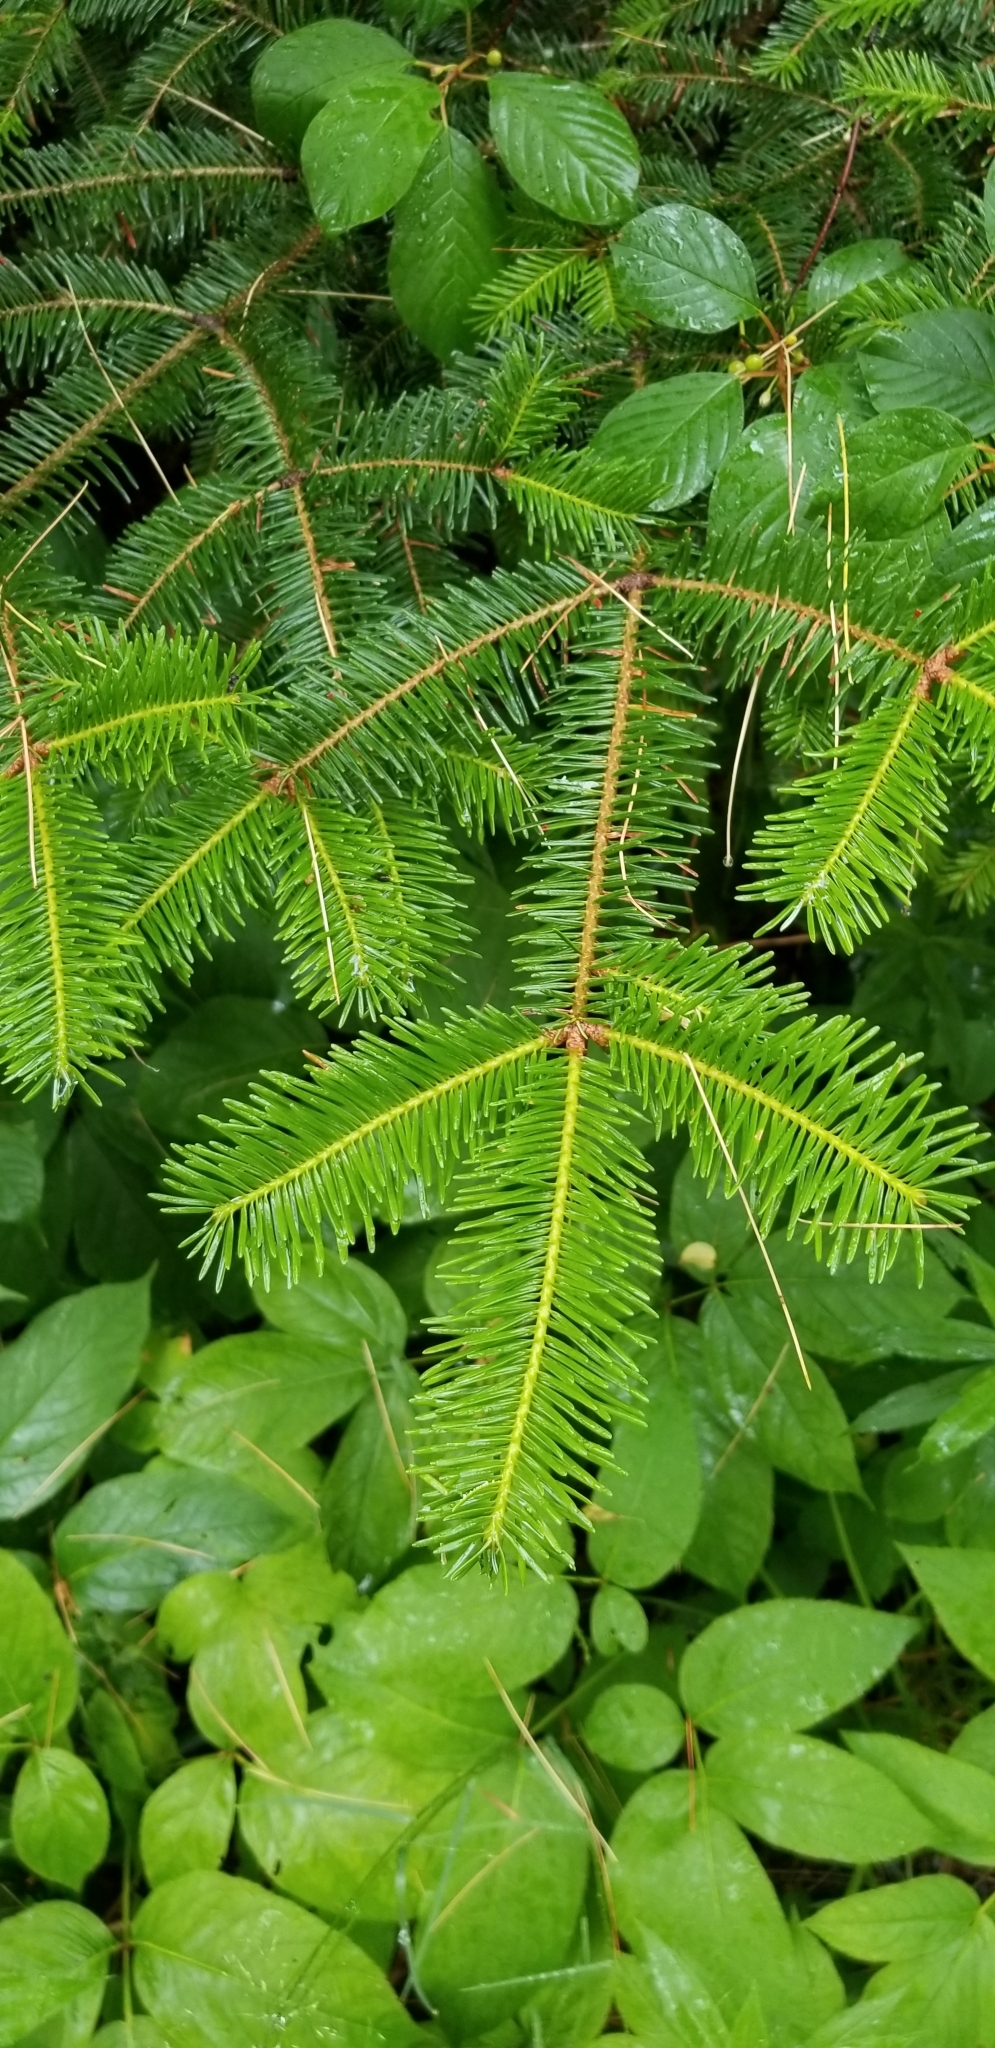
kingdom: Plantae
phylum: Tracheophyta
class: Pinopsida
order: Pinales
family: Pinaceae
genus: Abies
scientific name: Abies balsamea
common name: Balsam fir
